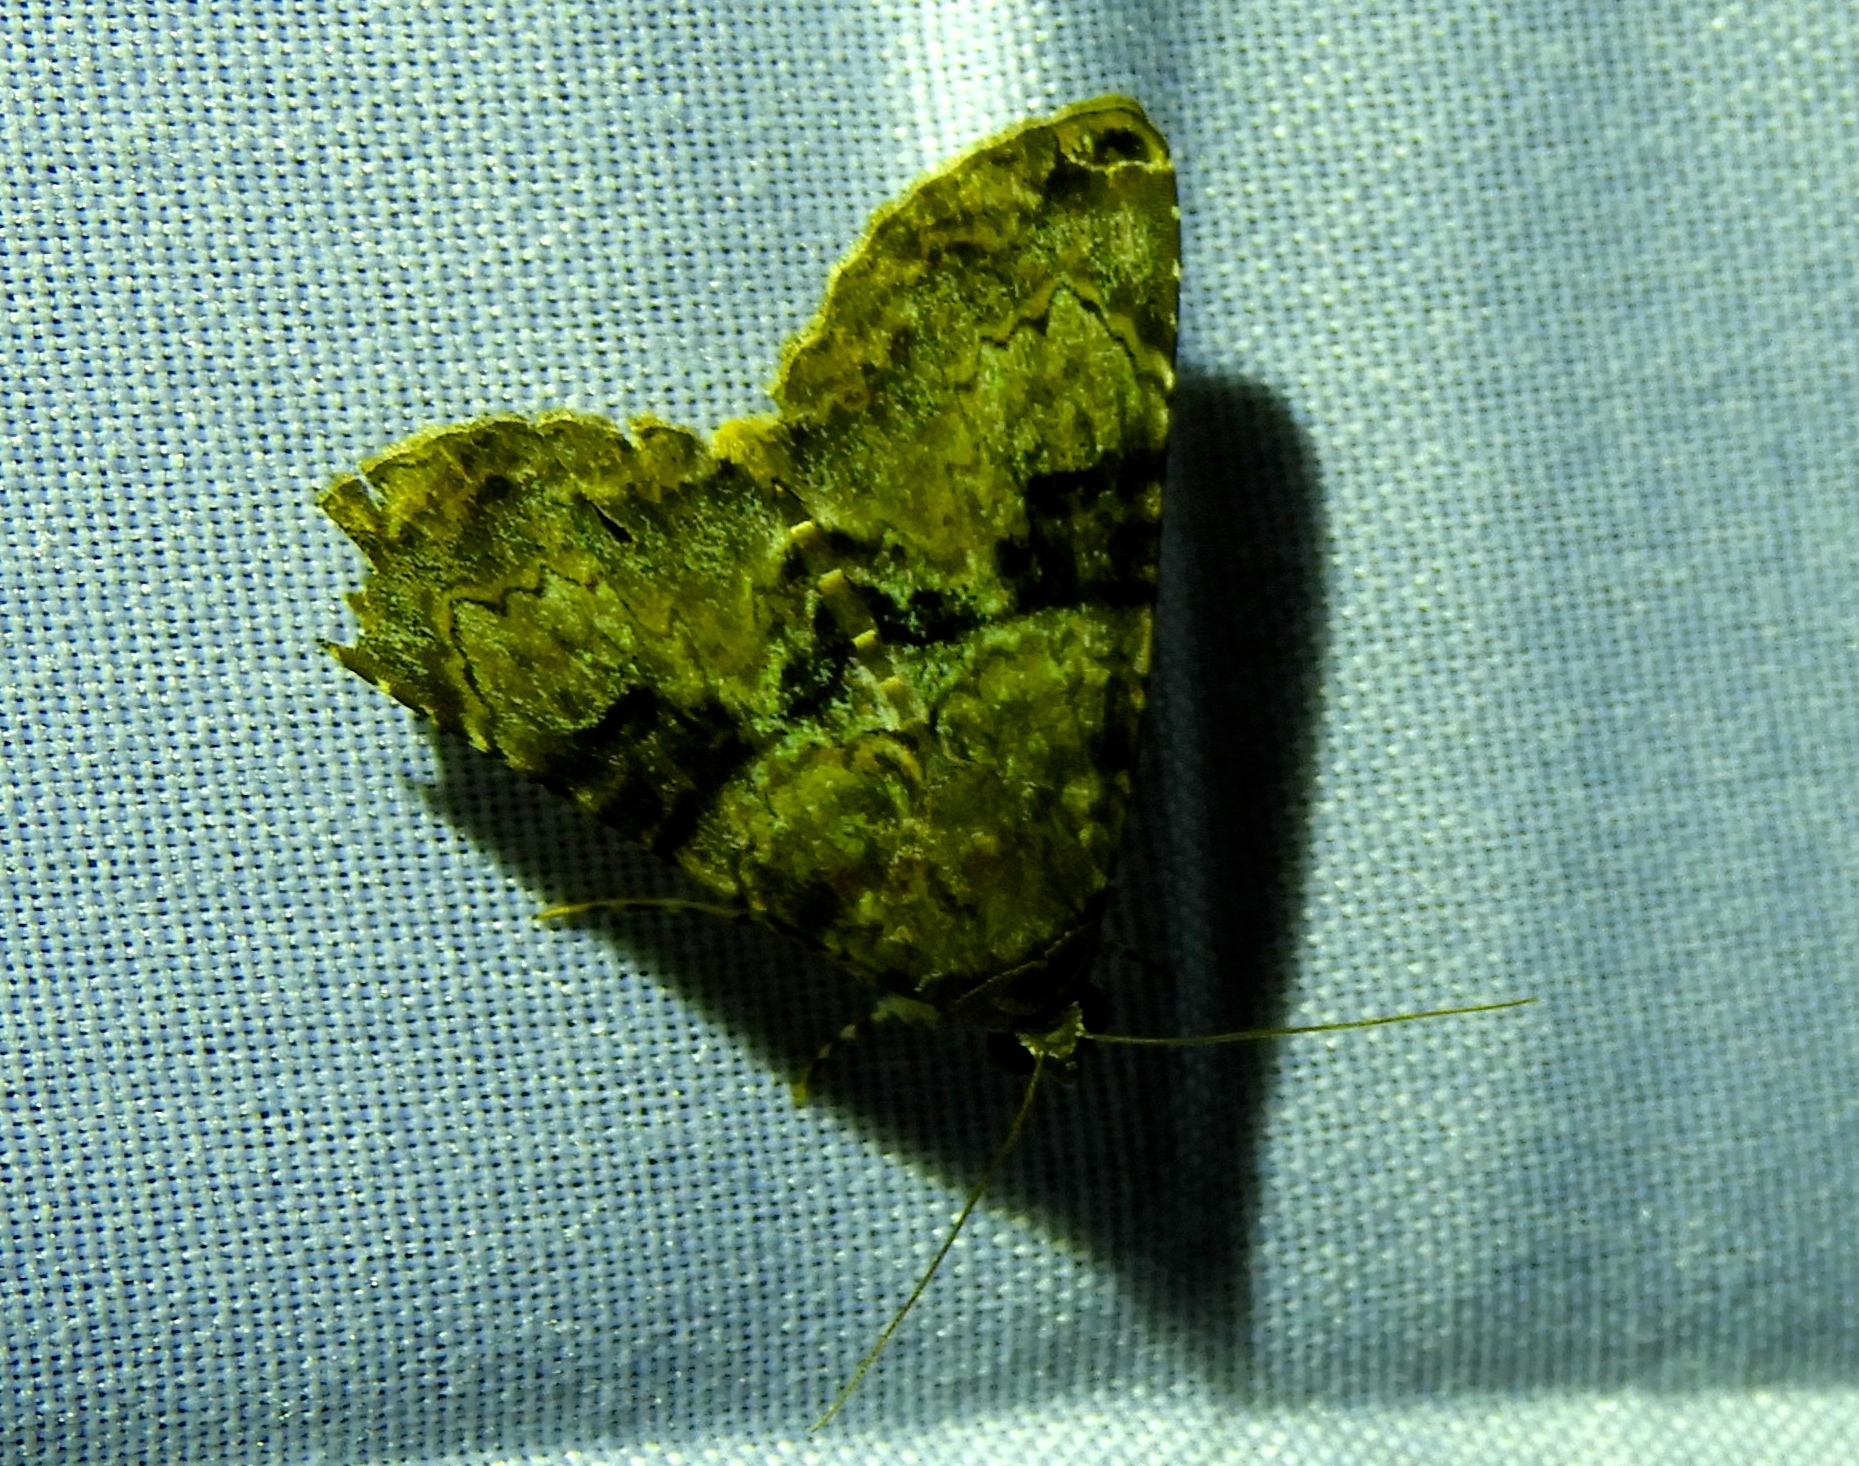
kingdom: Animalia
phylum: Arthropoda
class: Insecta
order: Lepidoptera
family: Erebidae
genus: Acolasis
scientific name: Acolasis
